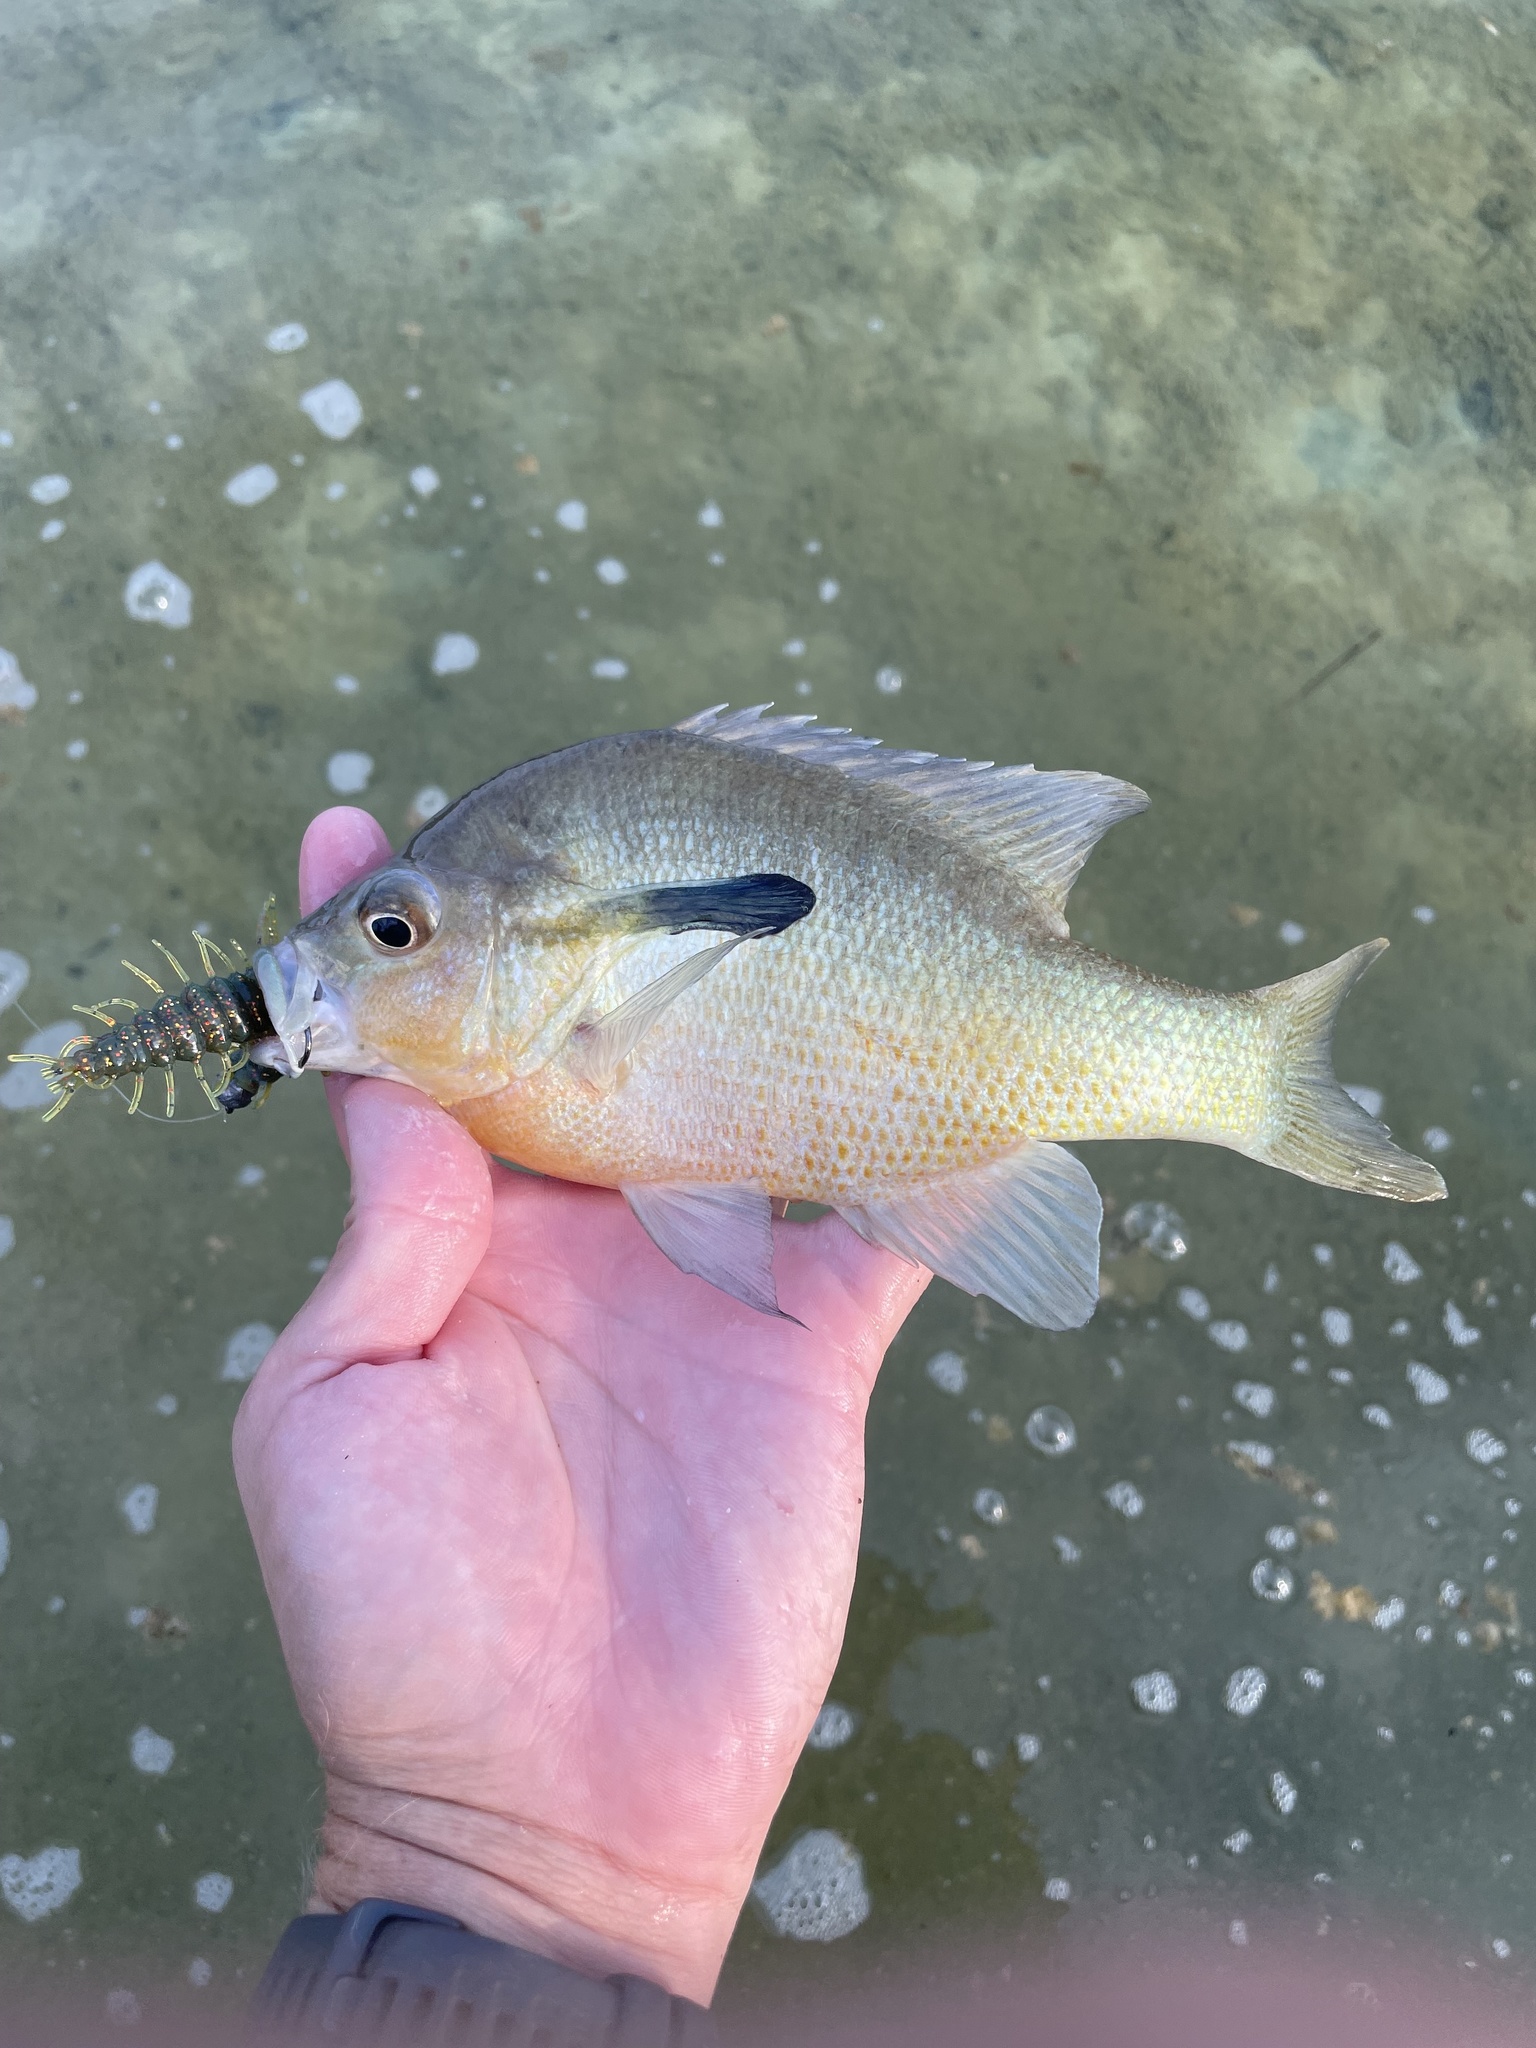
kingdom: Animalia
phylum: Chordata
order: Perciformes
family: Centrarchidae
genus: Lepomis
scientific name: Lepomis auritus
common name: Redbreast sunfish
